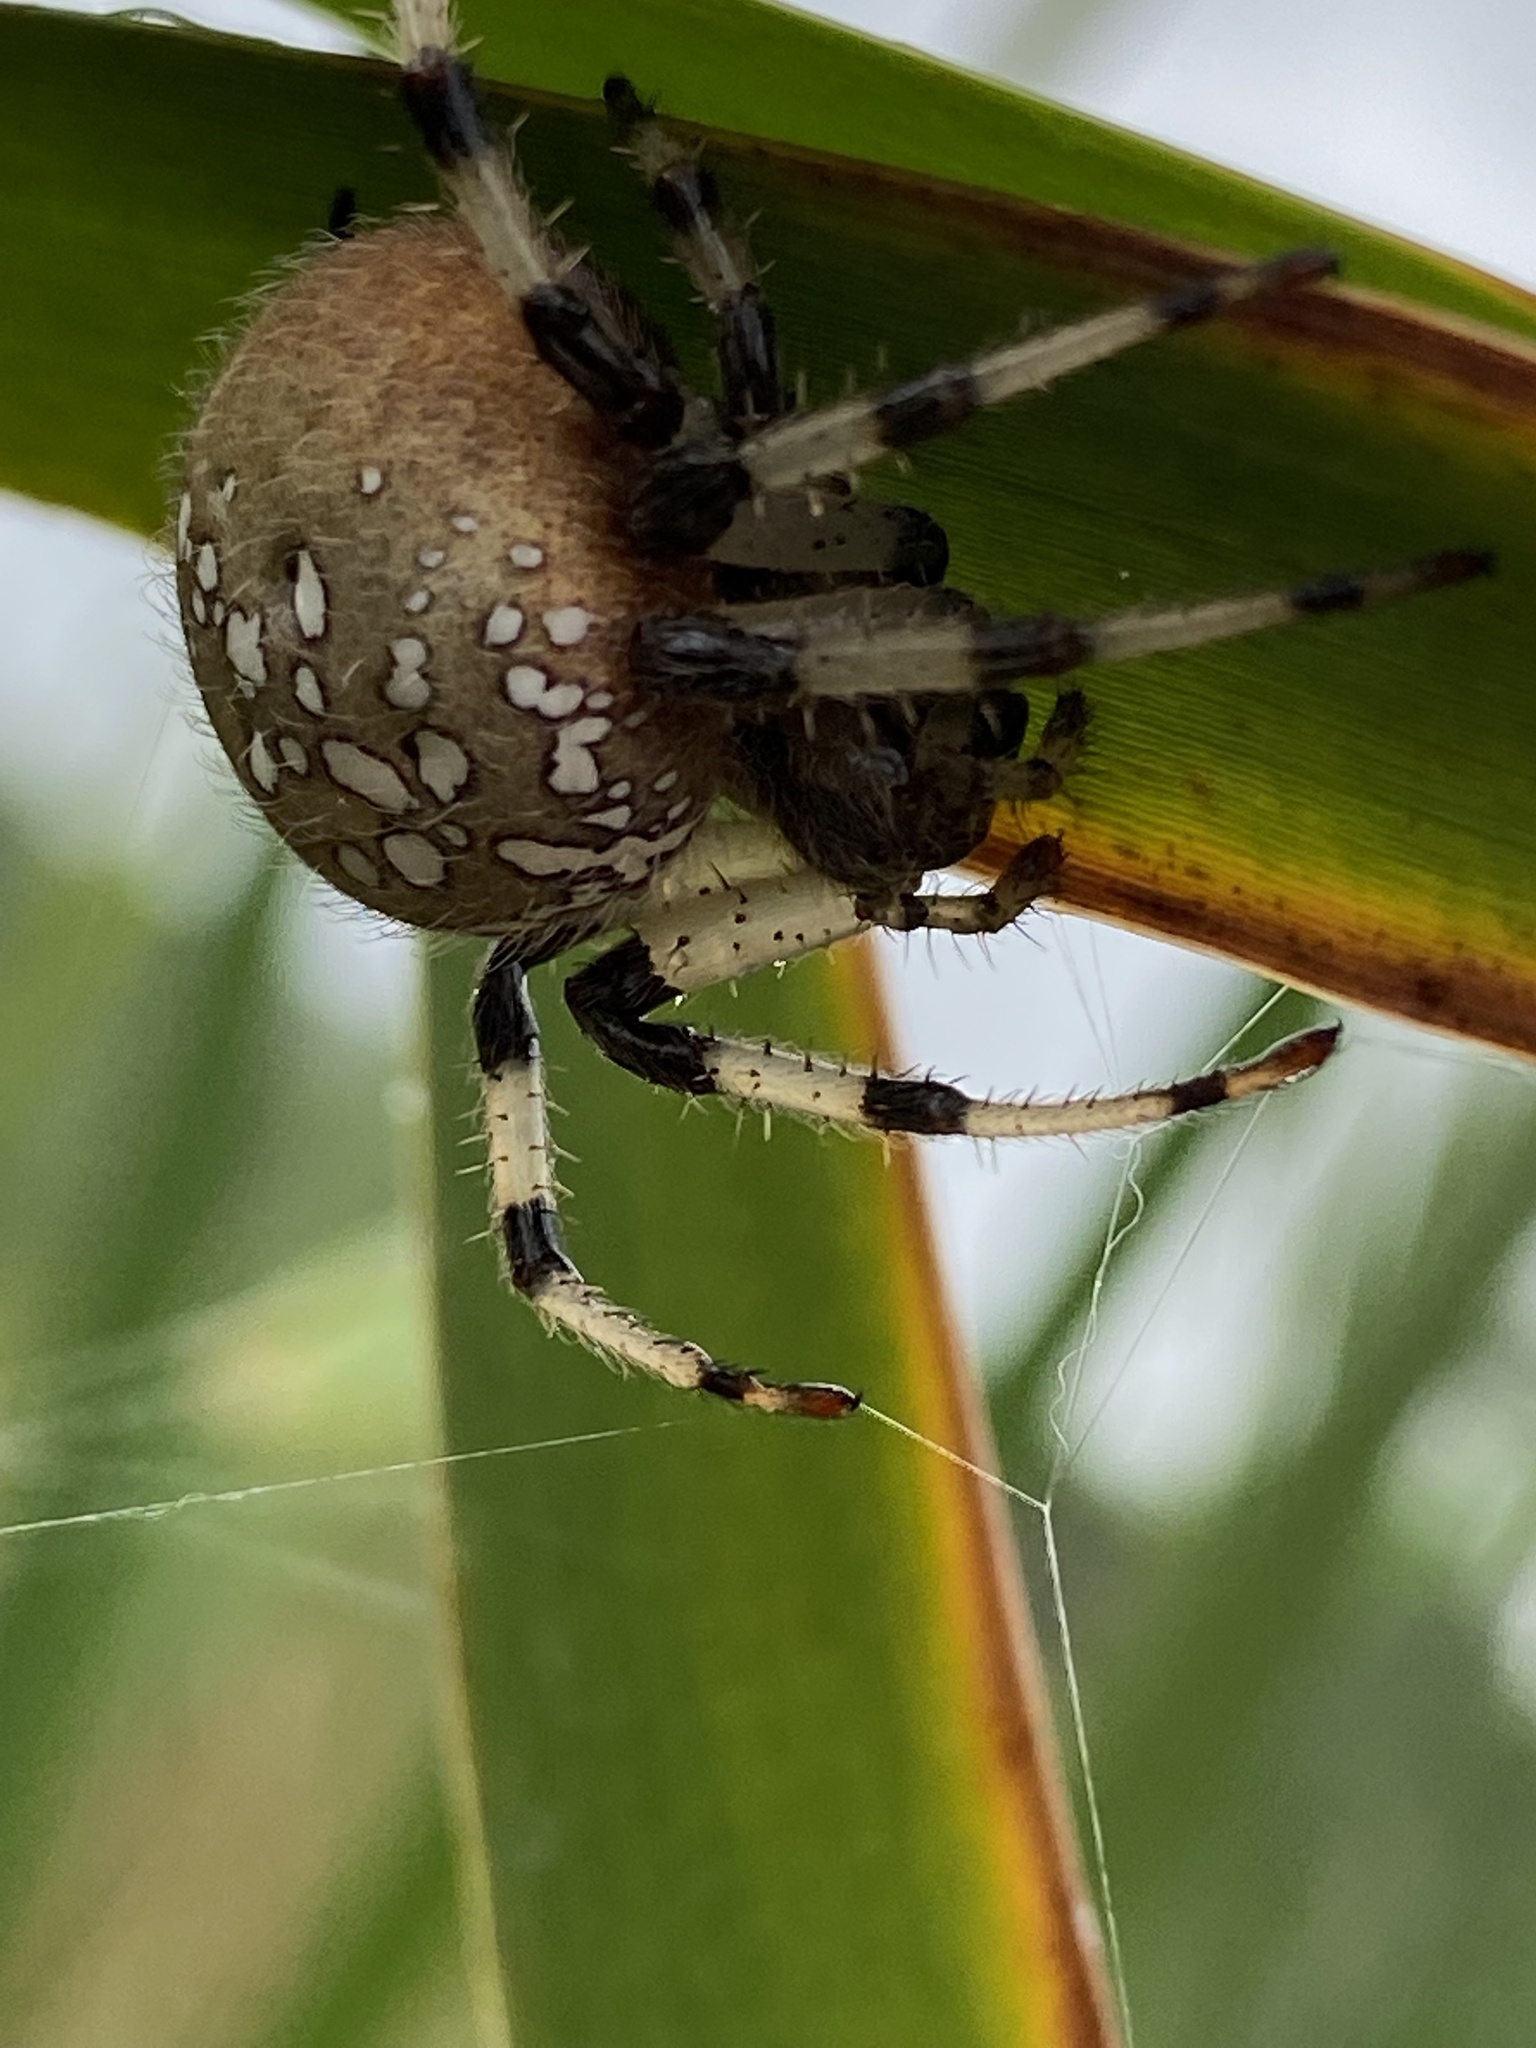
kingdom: Animalia
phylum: Arthropoda
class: Arachnida
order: Araneae
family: Araneidae
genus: Araneus
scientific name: Araneus trifolium
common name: Shamrock orbweaver
